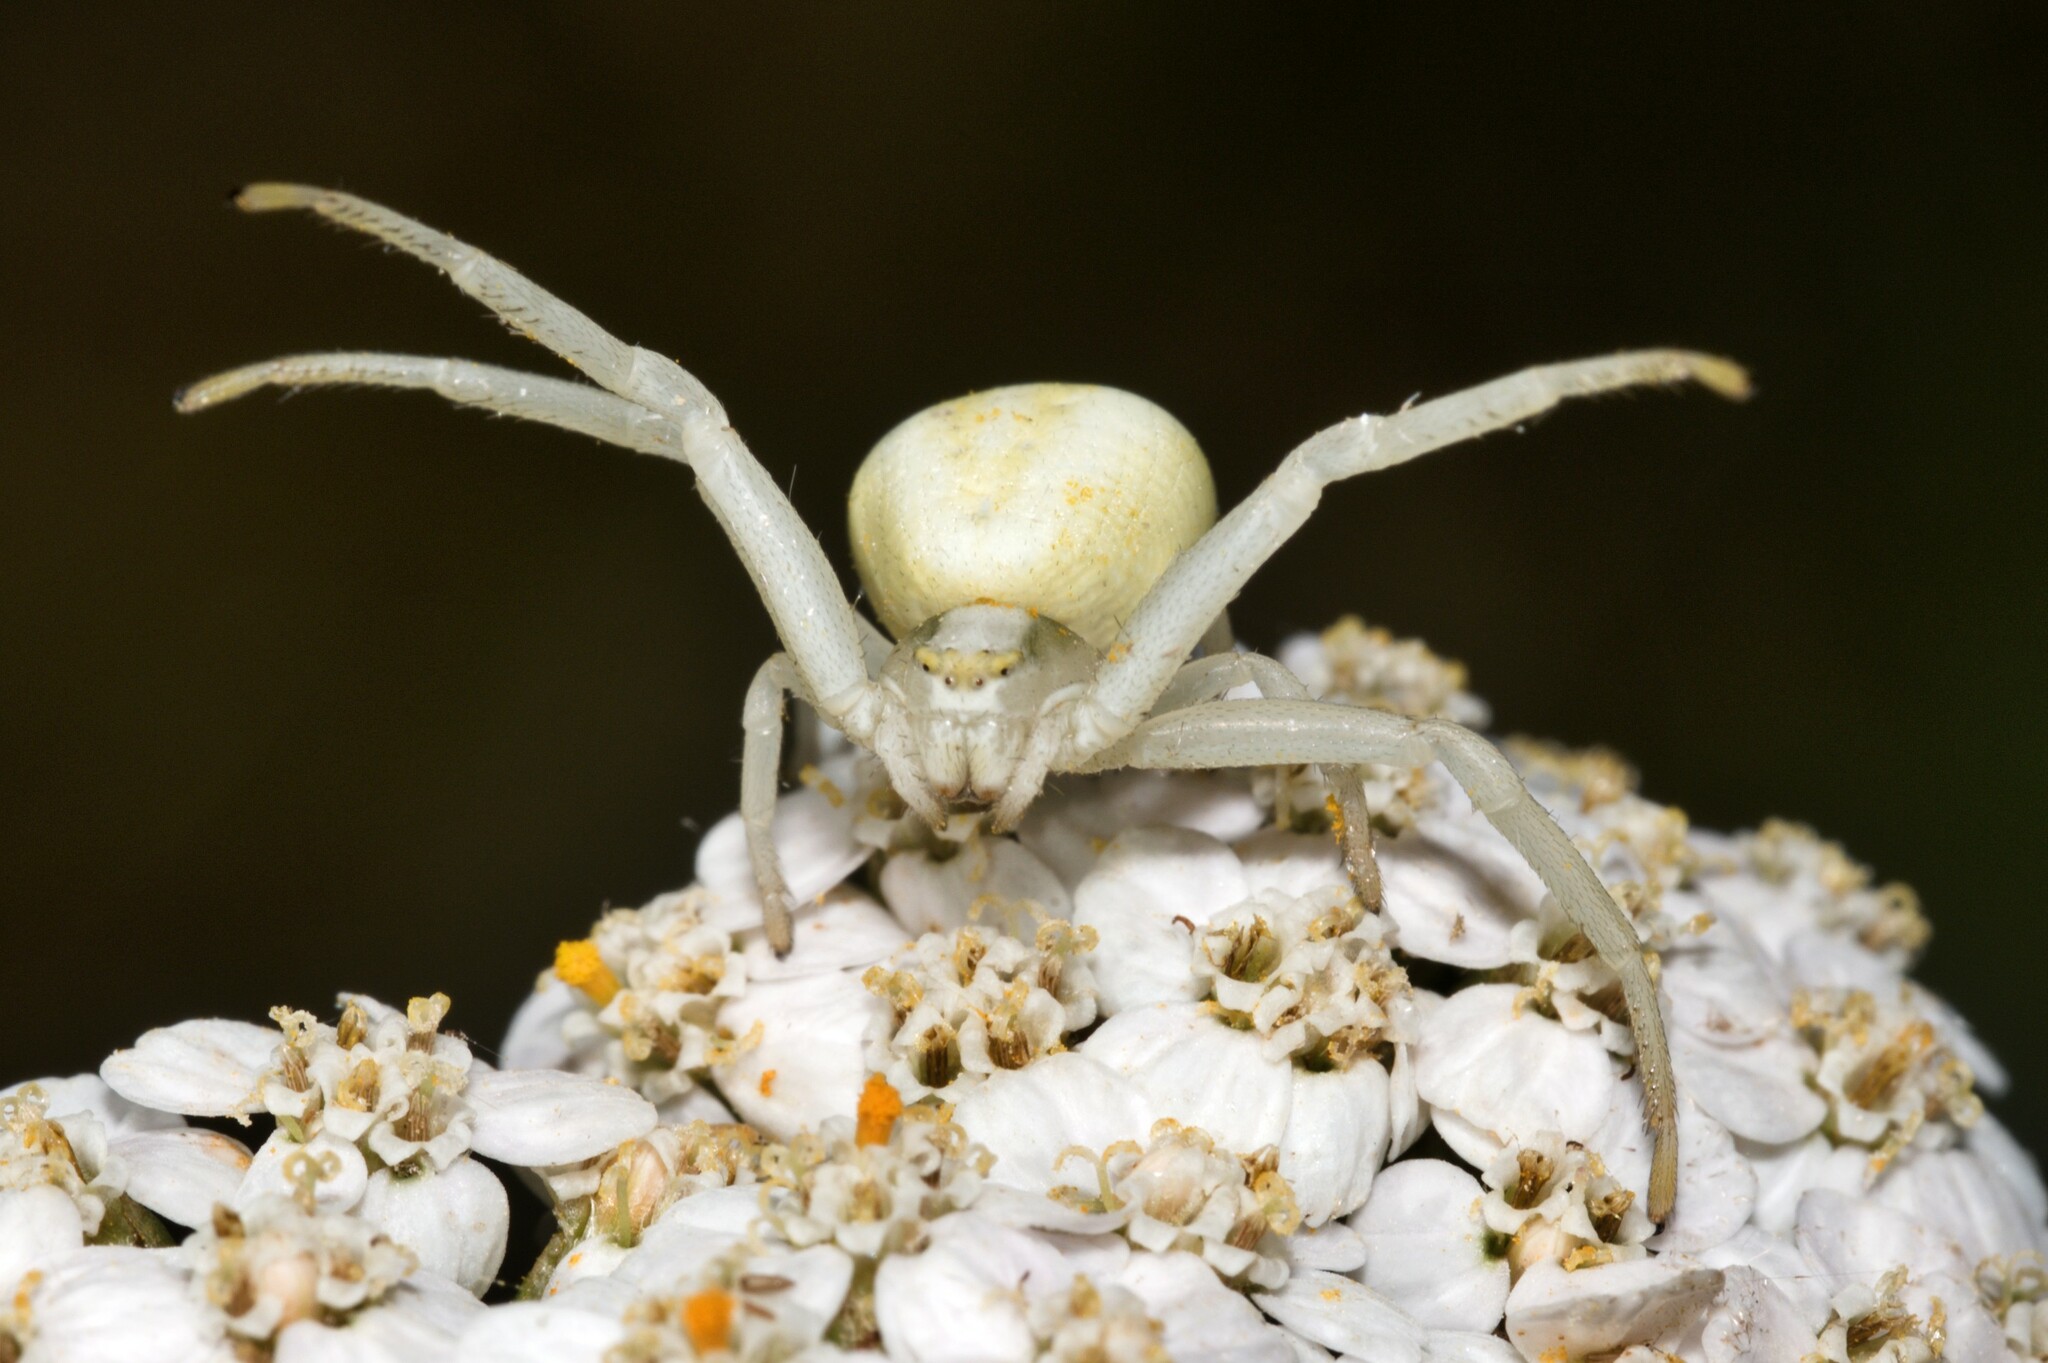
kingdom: Animalia
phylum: Arthropoda
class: Arachnida
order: Araneae
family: Thomisidae
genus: Misumena
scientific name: Misumena vatia
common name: Goldenrod crab spider
